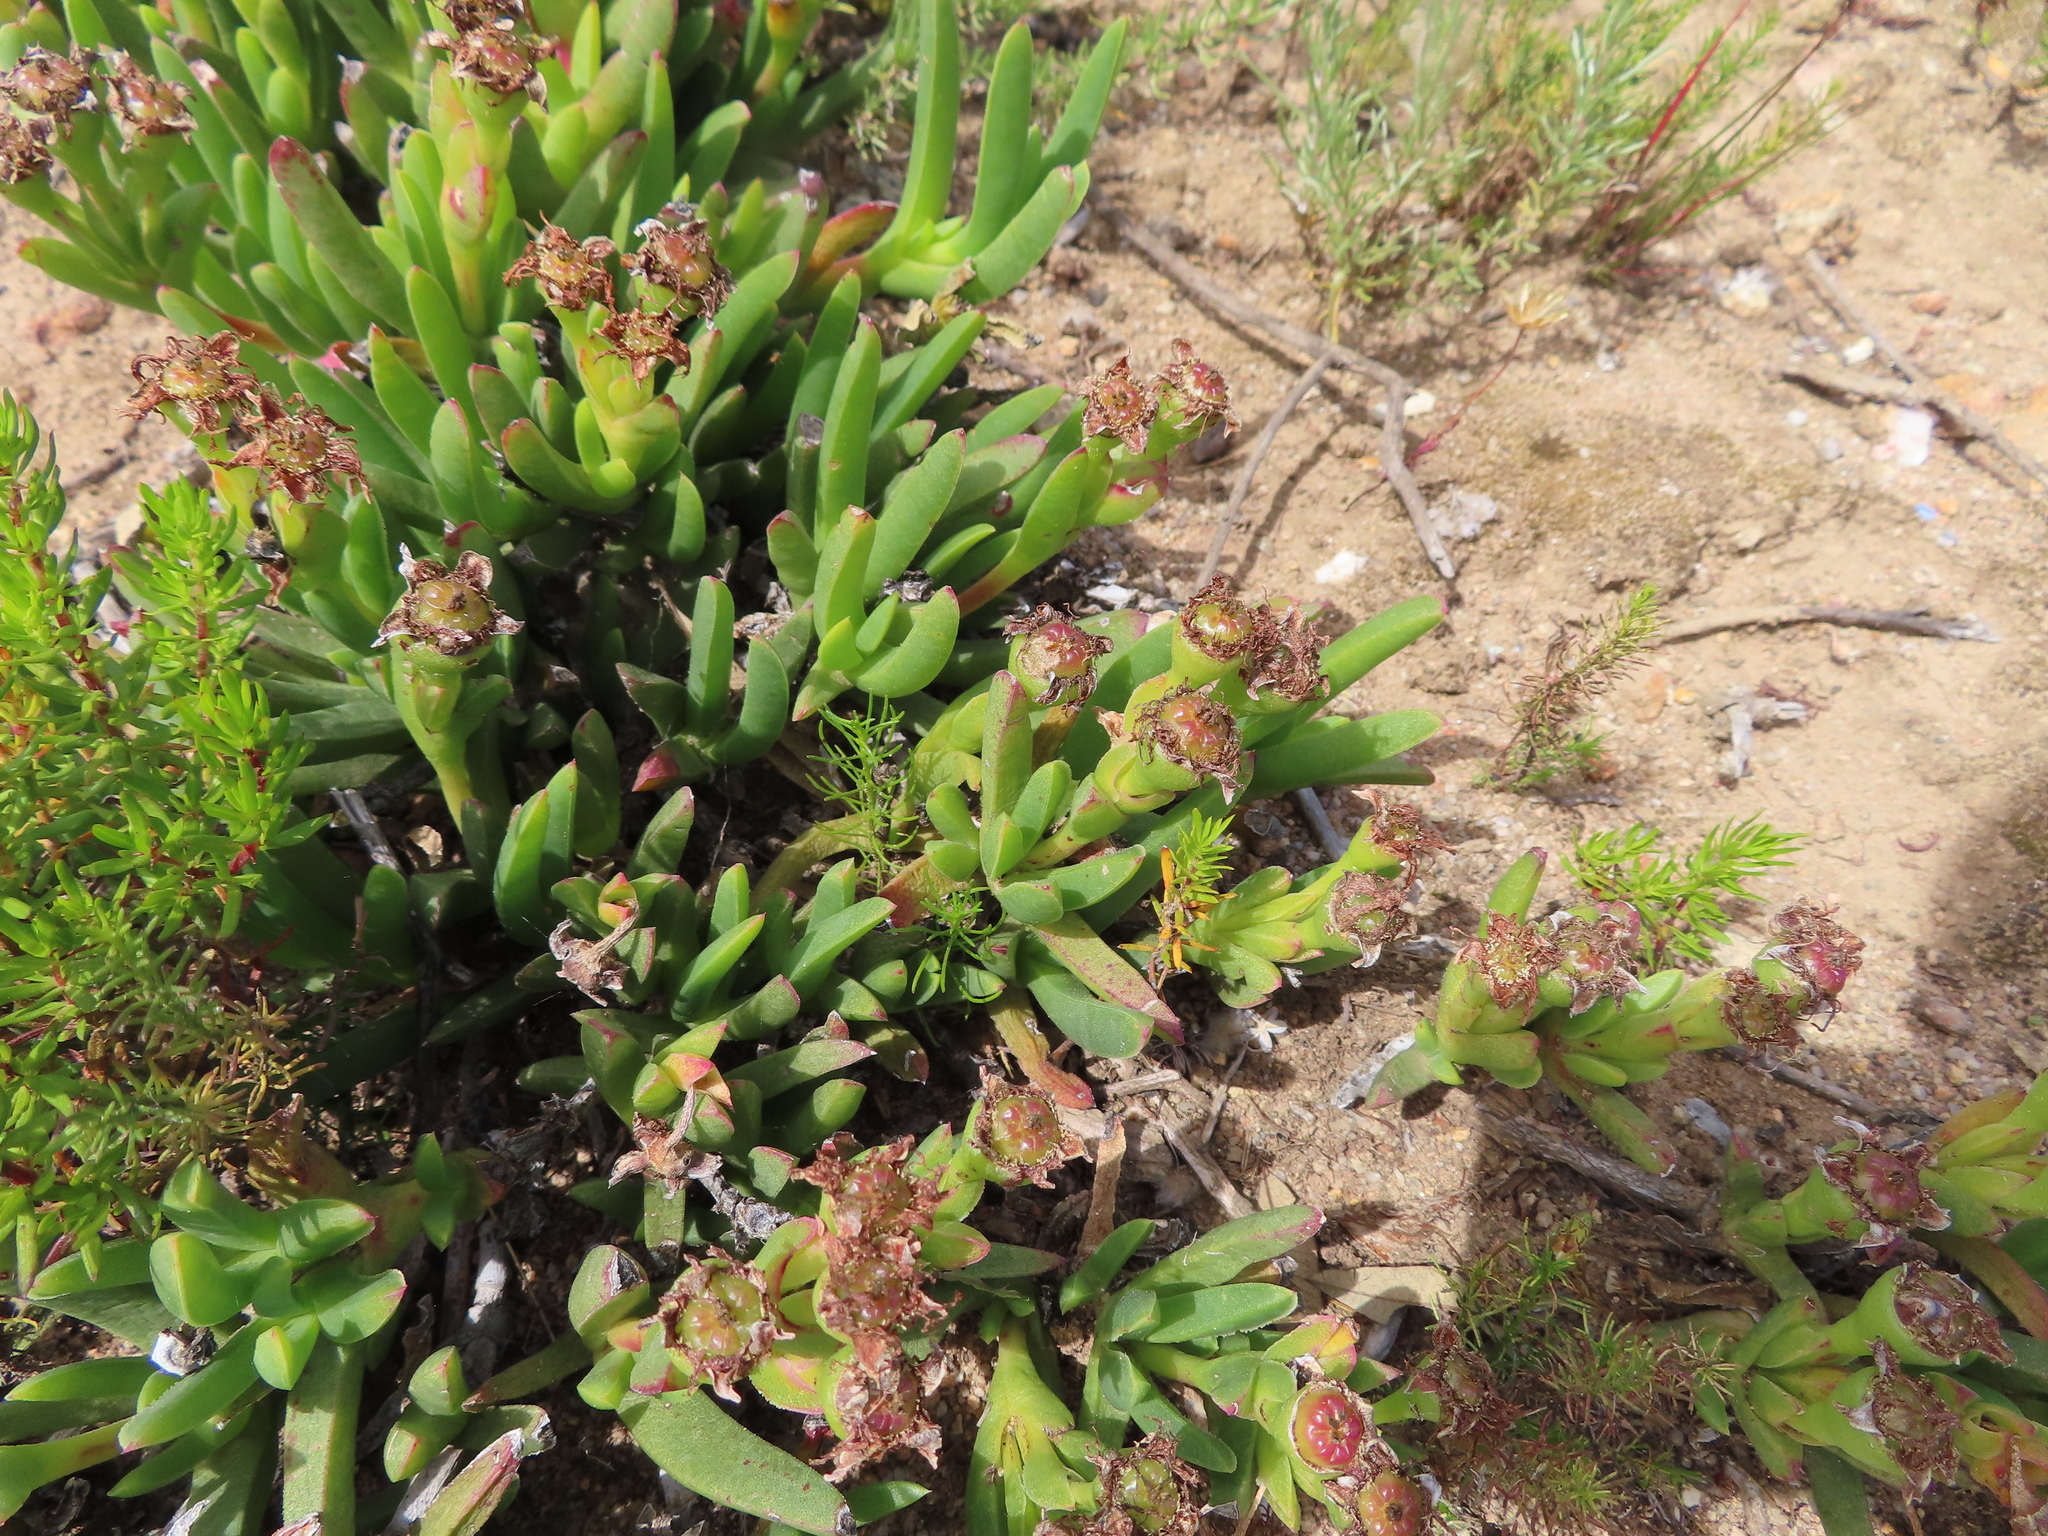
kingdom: Plantae
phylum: Tracheophyta
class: Magnoliopsida
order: Caryophyllales
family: Aizoaceae
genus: Ruschia
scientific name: Ruschia schollii
